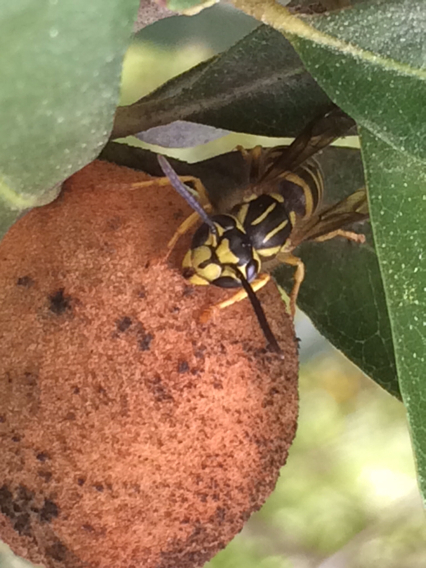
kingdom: Animalia
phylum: Arthropoda
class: Insecta
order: Hymenoptera
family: Vespidae
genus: Vespula
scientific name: Vespula squamosa
